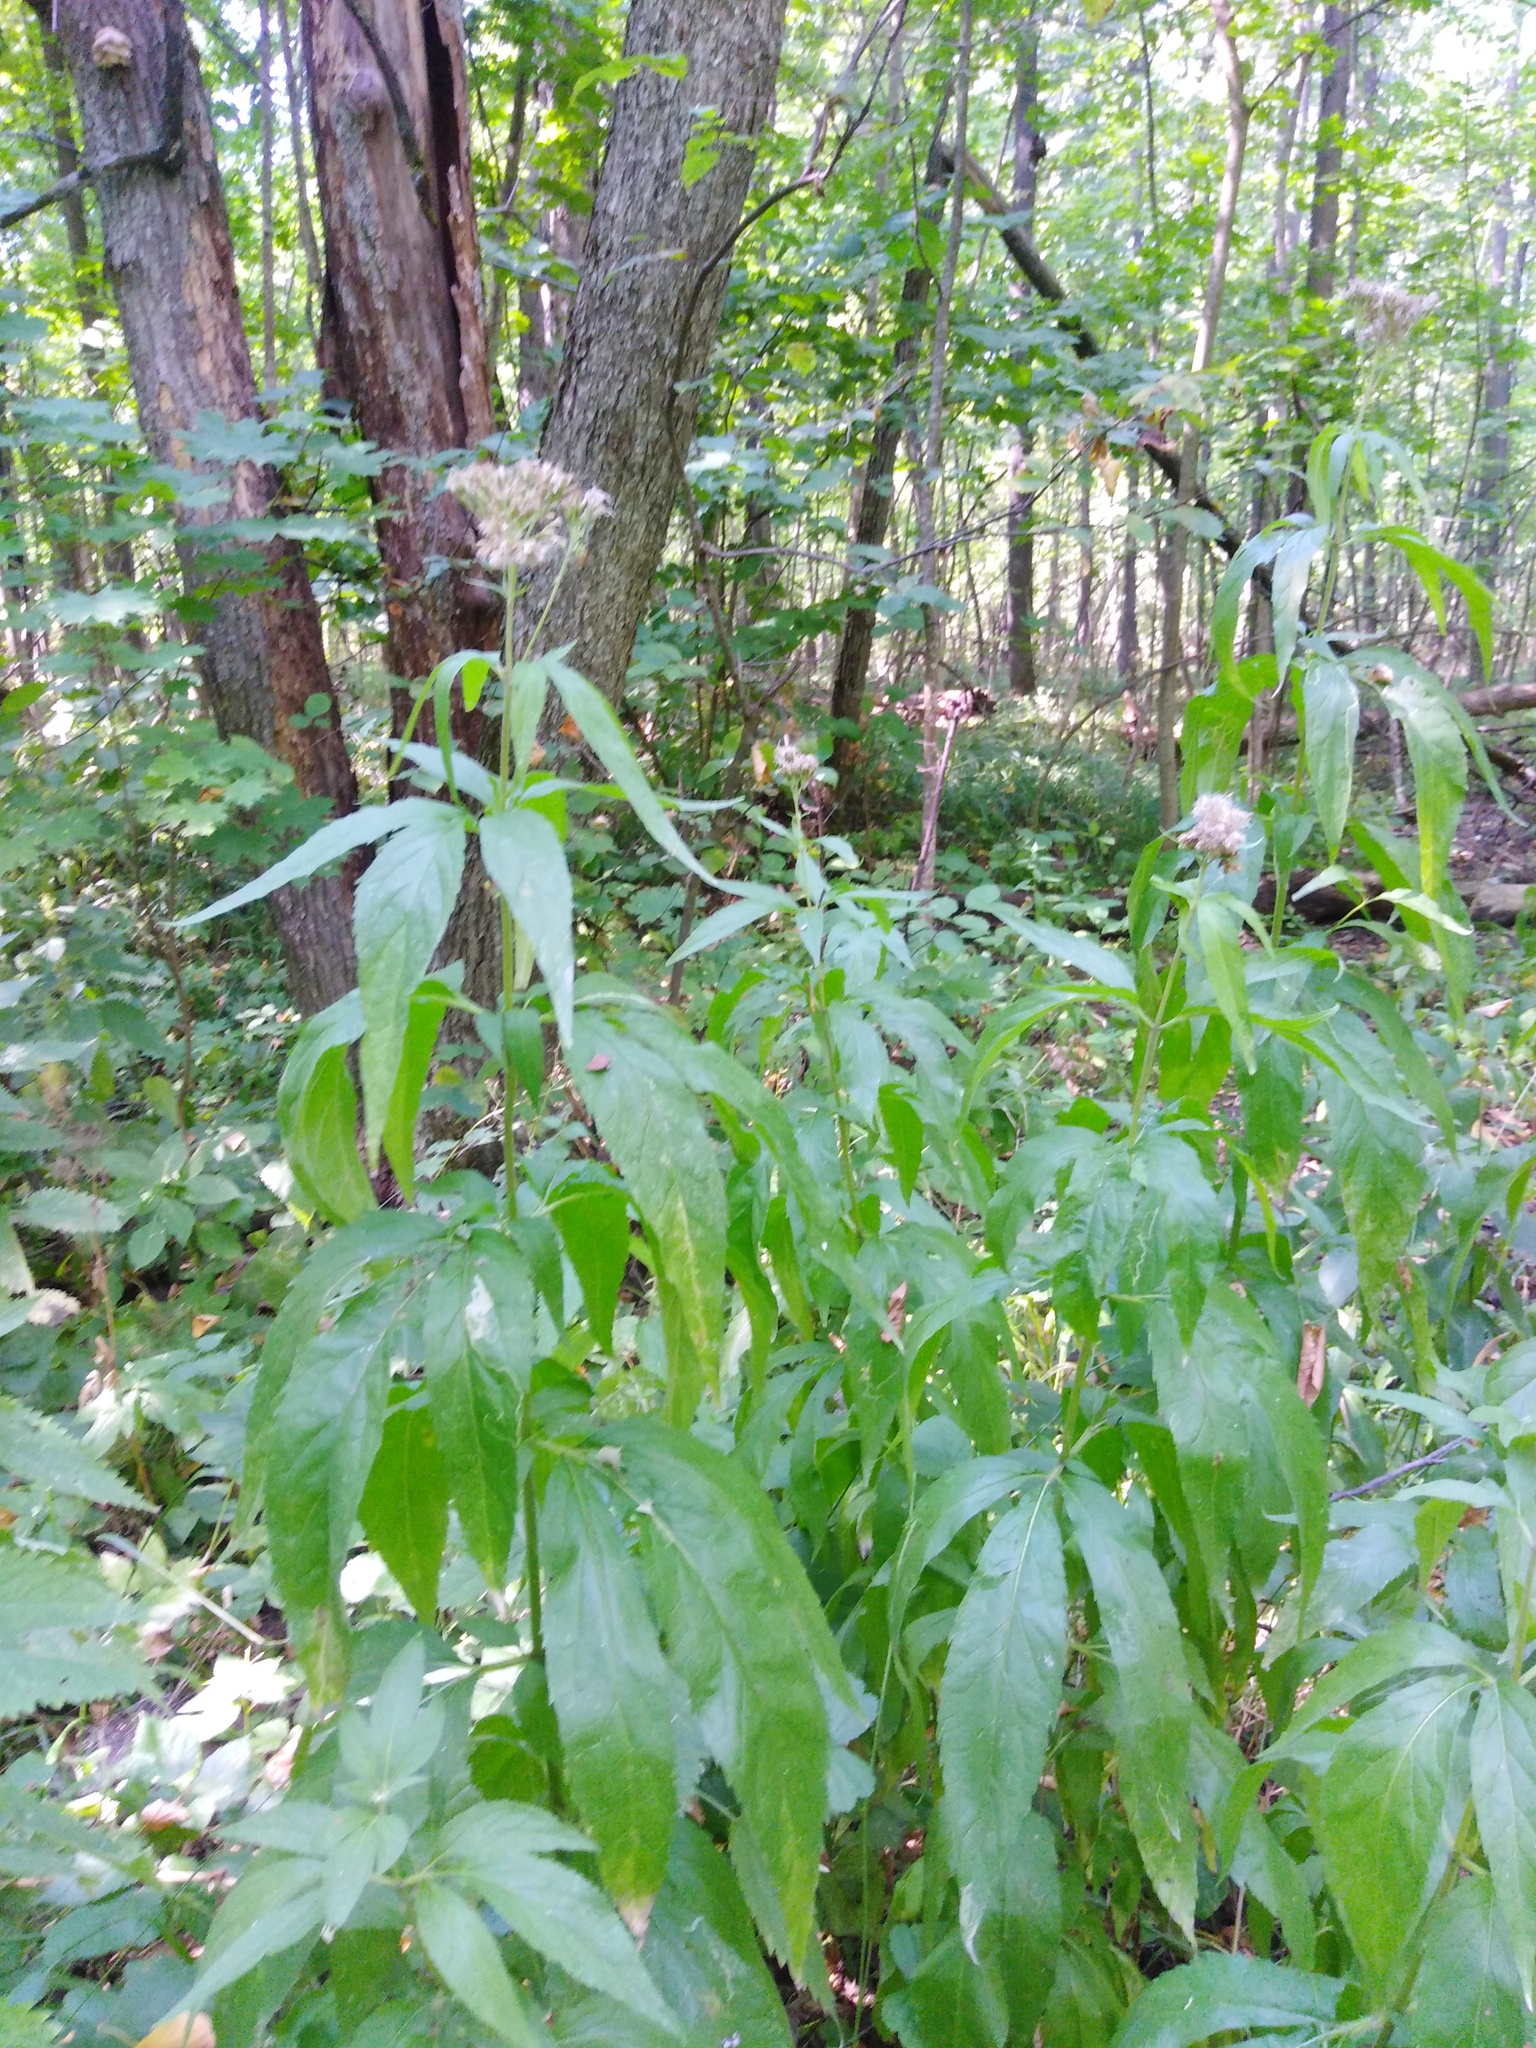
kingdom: Plantae
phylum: Tracheophyta
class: Magnoliopsida
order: Asterales
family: Asteraceae
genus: Eupatorium
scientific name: Eupatorium cannabinum
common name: Hemp-agrimony
